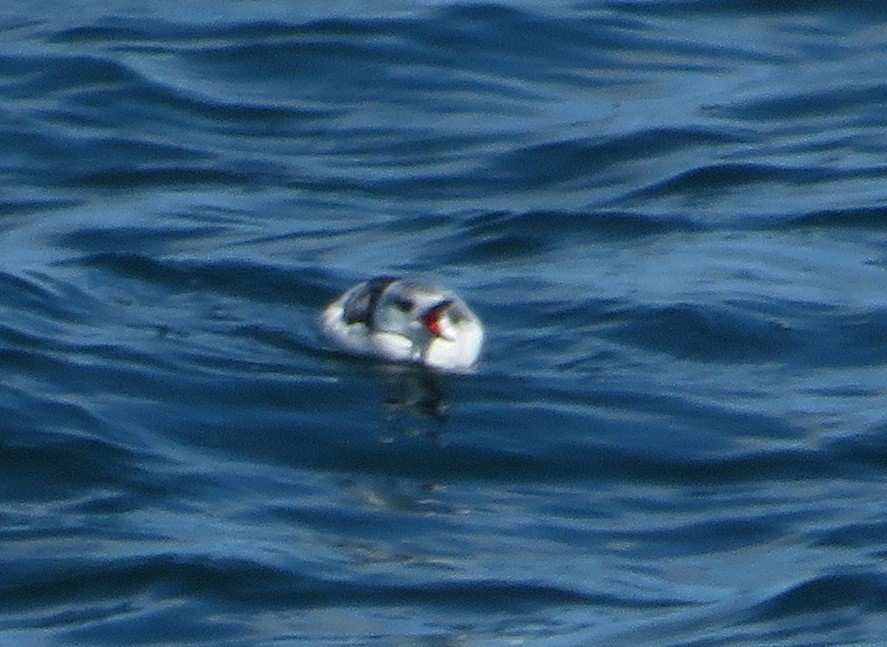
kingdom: Animalia
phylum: Chordata
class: Aves
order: Charadriiformes
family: Alcidae
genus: Cepphus
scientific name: Cepphus grylle
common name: Black guillemot
